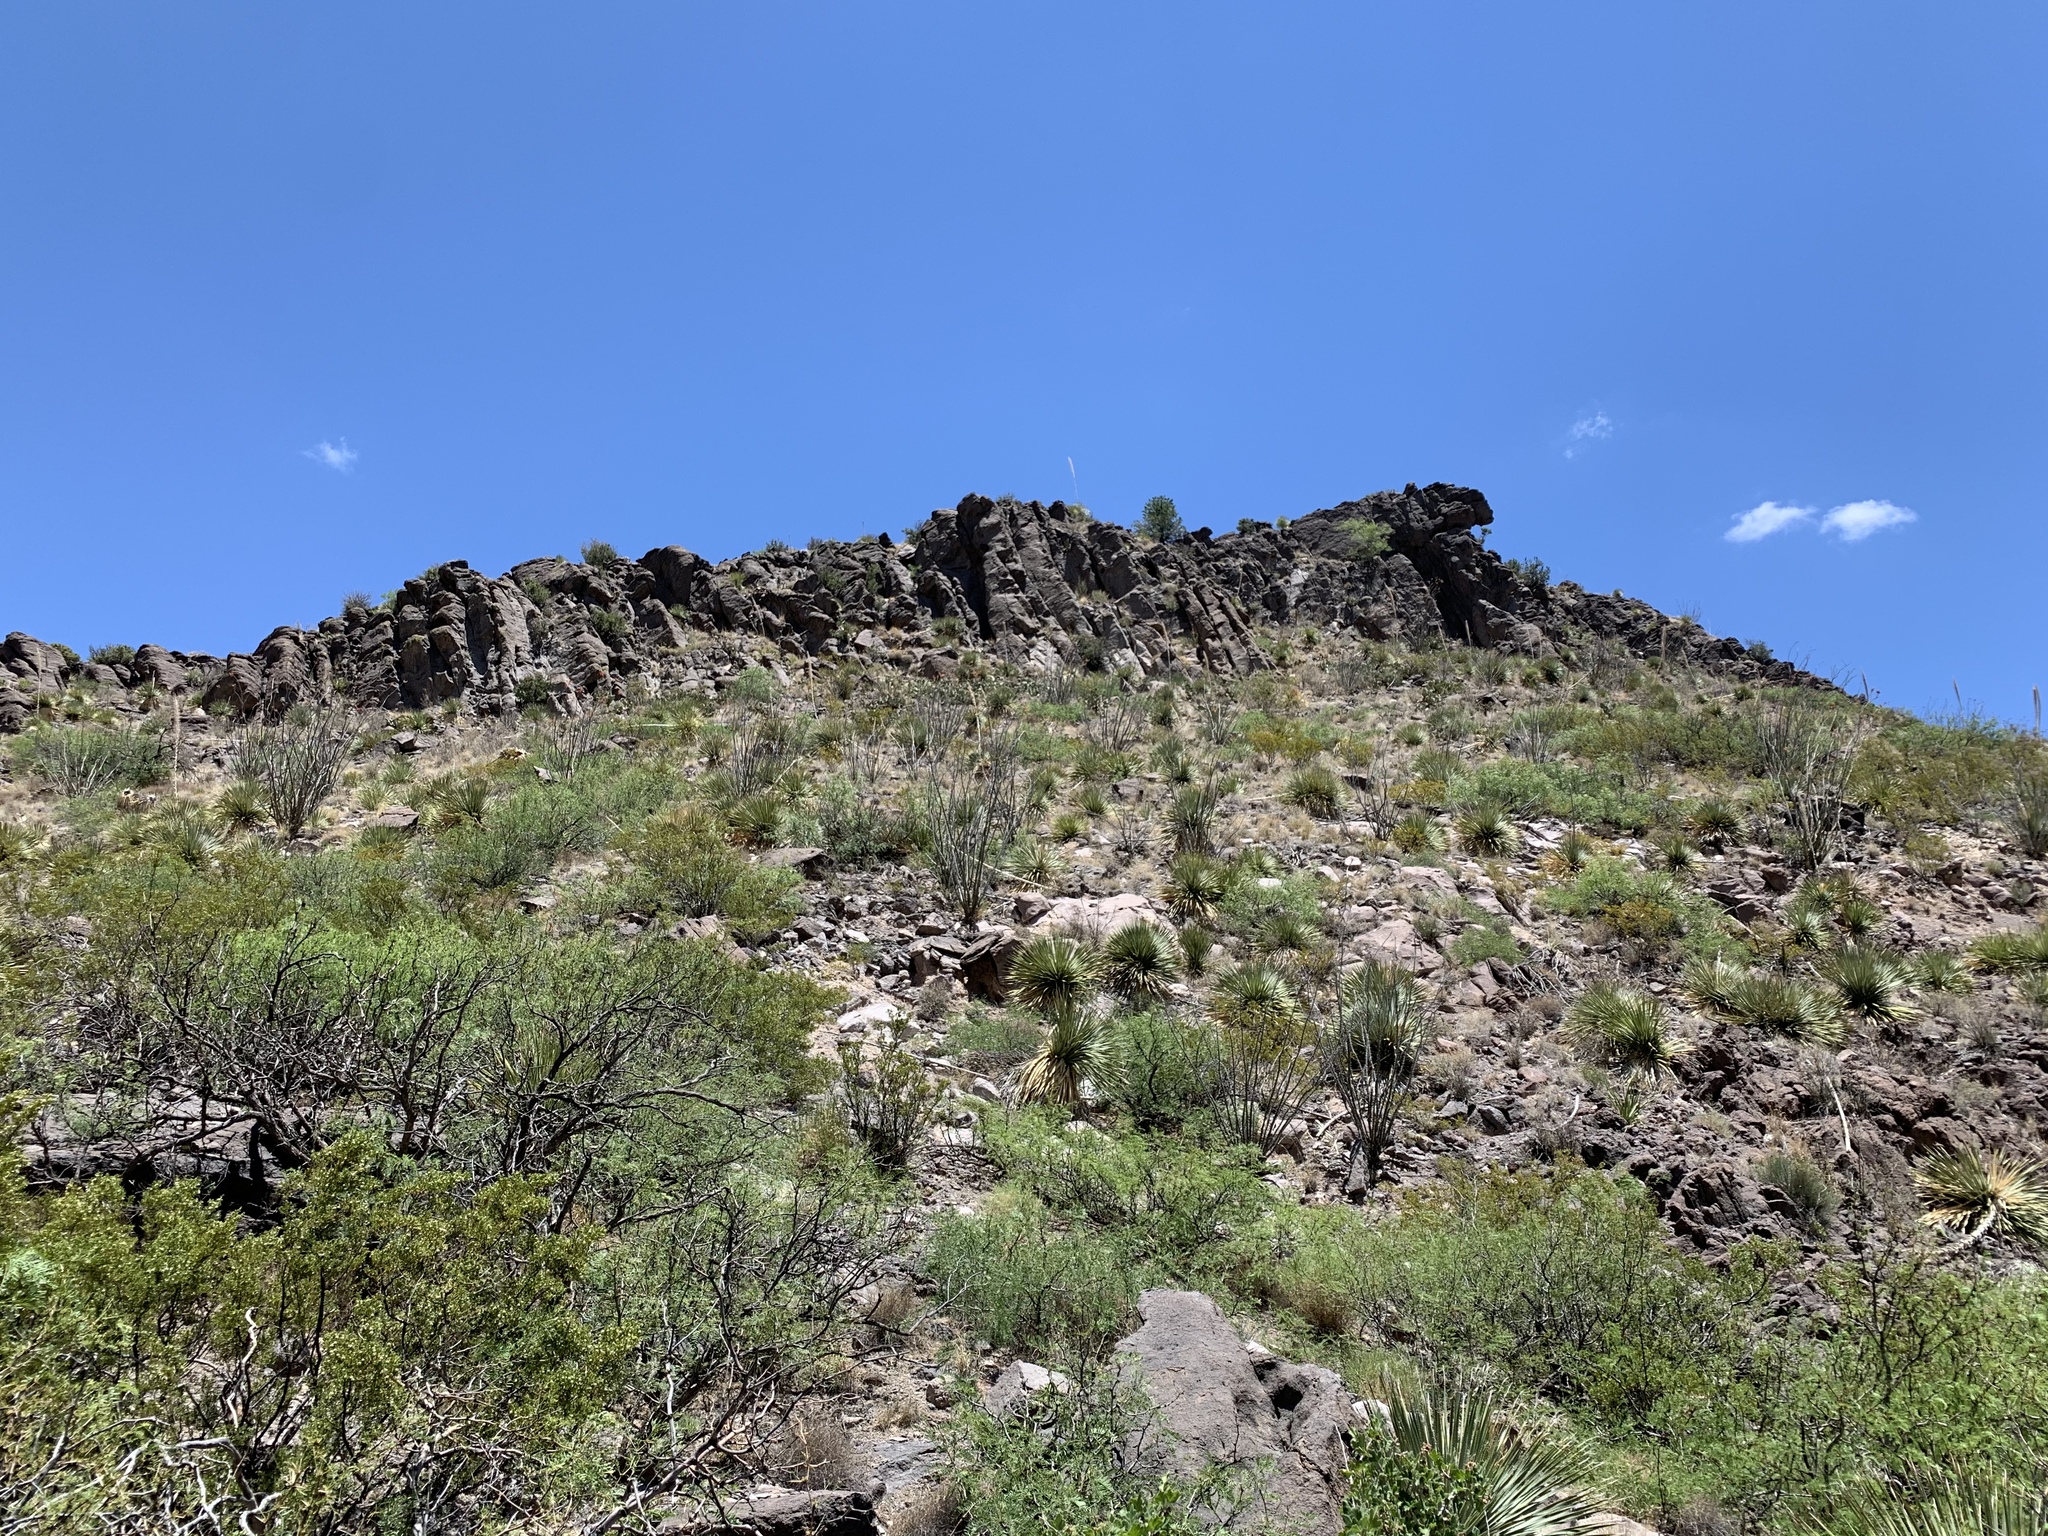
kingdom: Plantae
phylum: Tracheophyta
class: Magnoliopsida
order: Ericales
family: Fouquieriaceae
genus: Fouquieria
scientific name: Fouquieria splendens
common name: Vine-cactus
